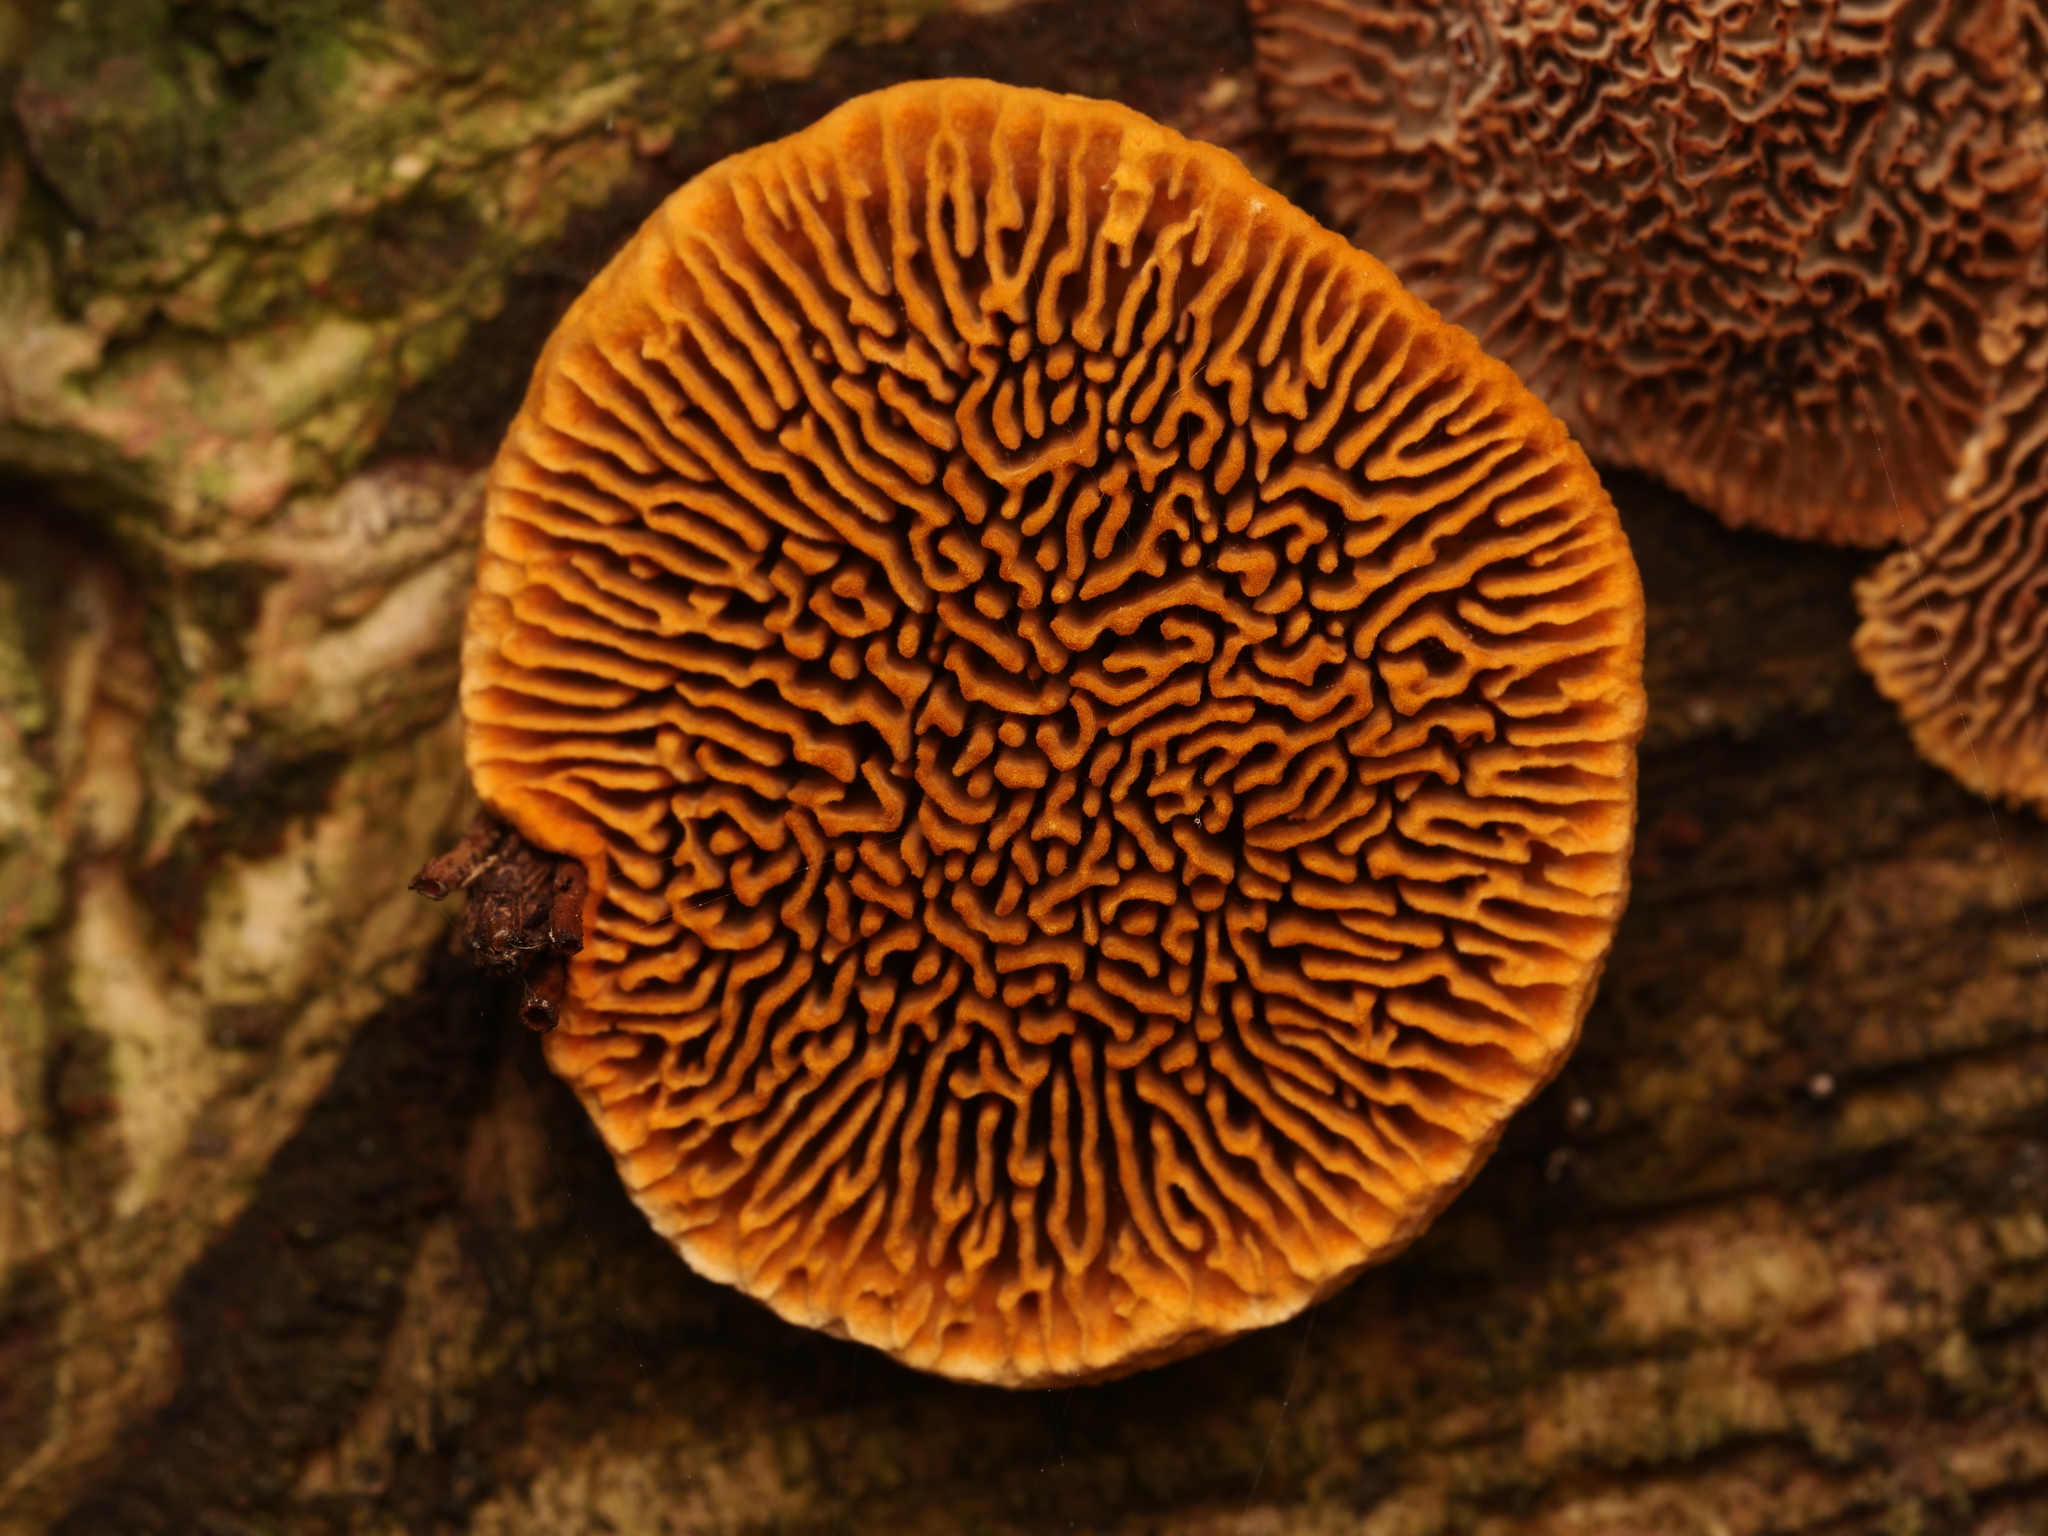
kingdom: Fungi
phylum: Basidiomycota
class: Agaricomycetes
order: Gloeophyllales
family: Gloeophyllaceae
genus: Gloeophyllum
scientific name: Gloeophyllum sepiarium
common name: Conifer mazegill
